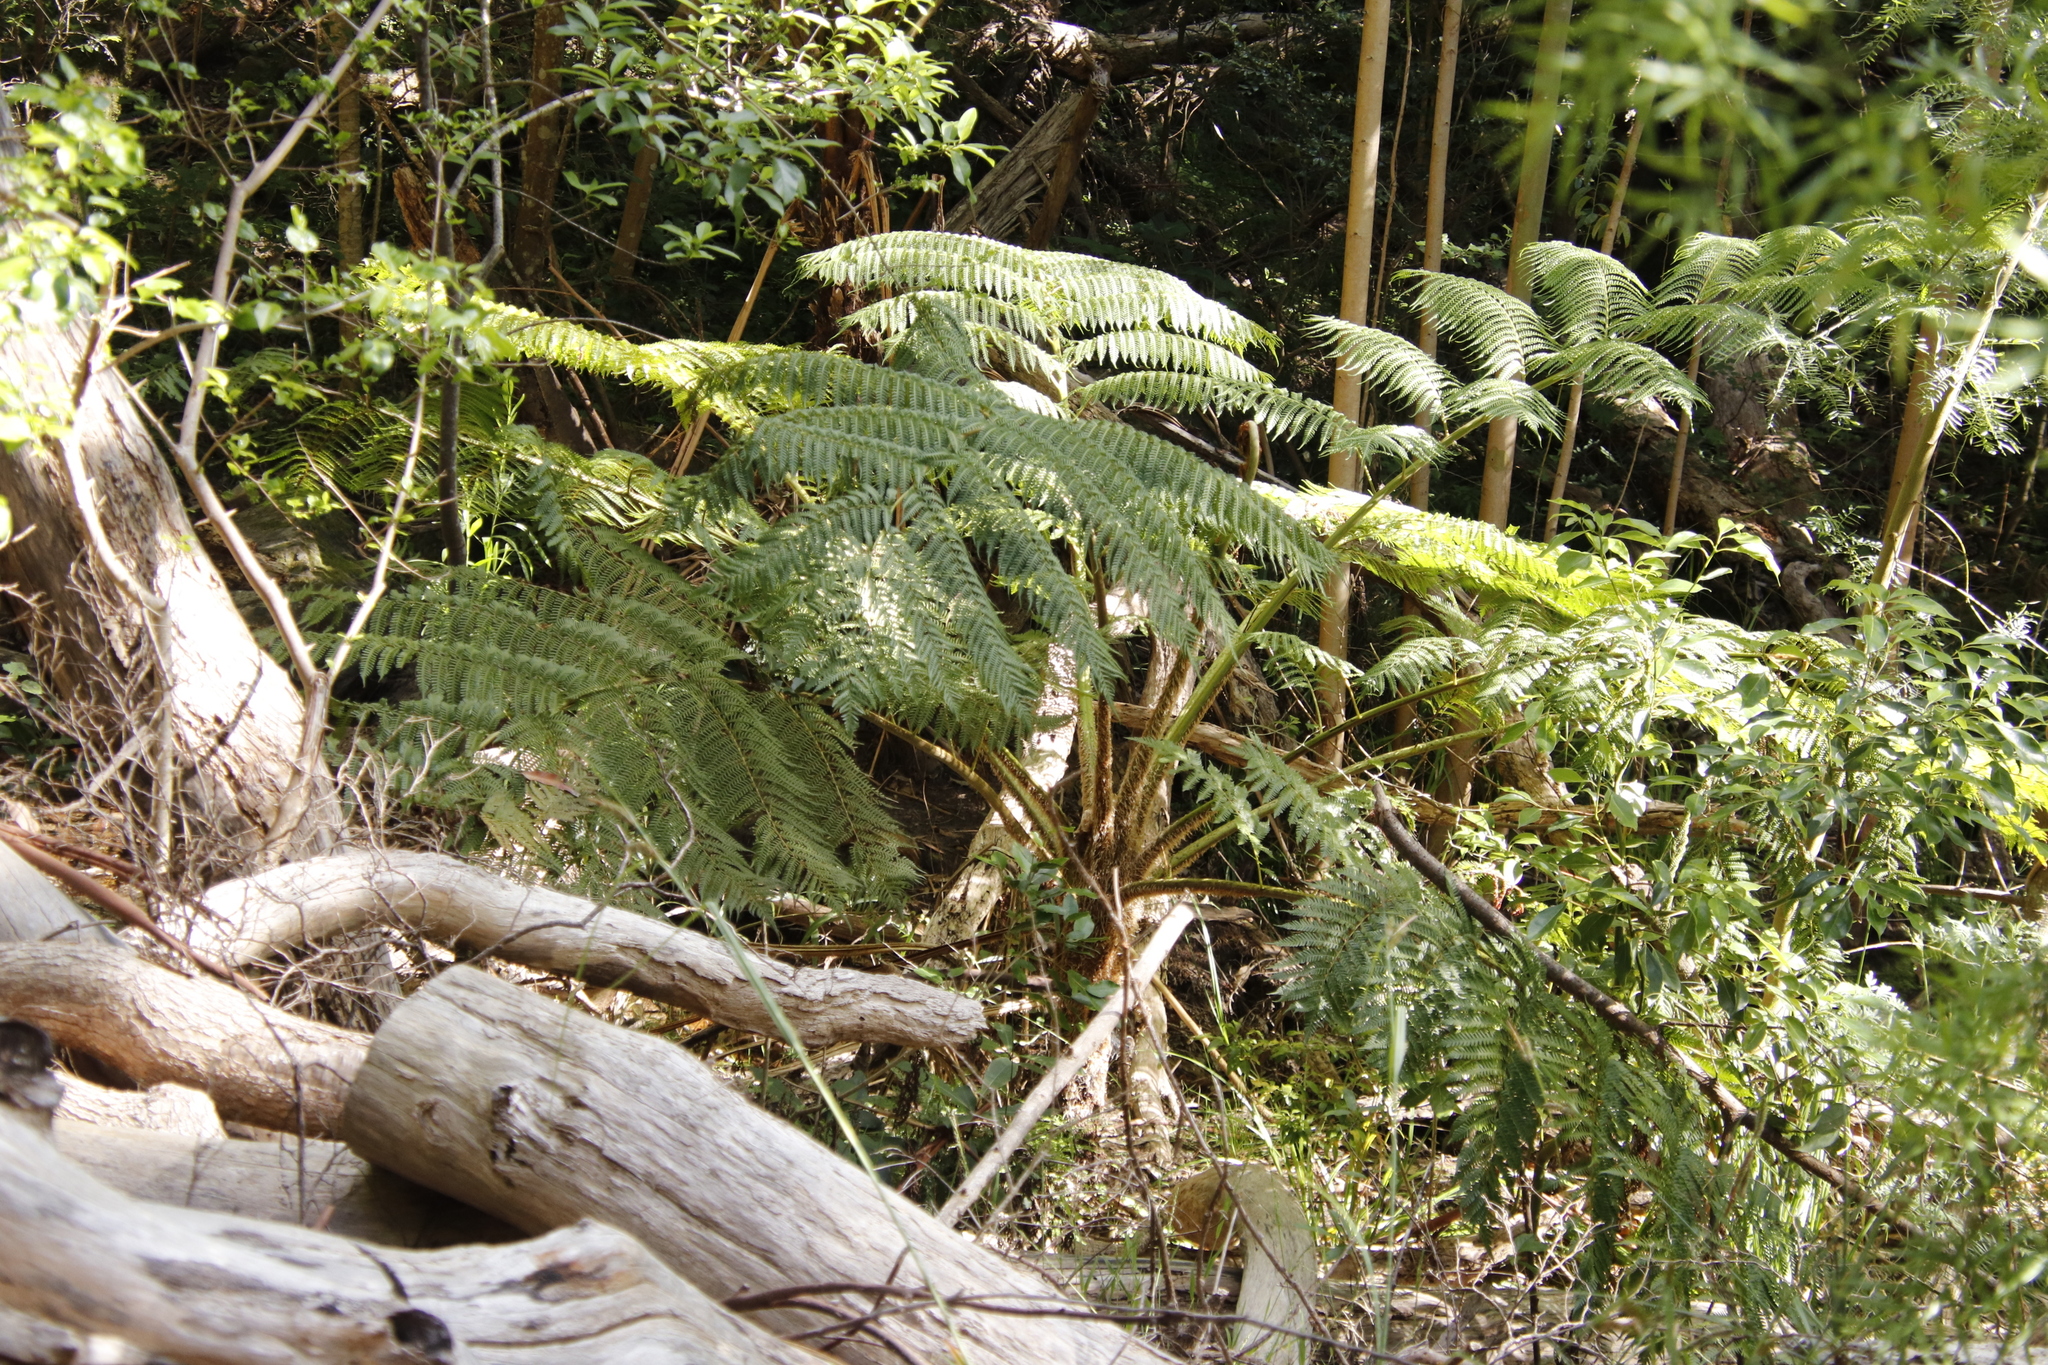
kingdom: Plantae
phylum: Tracheophyta
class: Polypodiopsida
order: Cyatheales
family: Cyatheaceae
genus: Sphaeropteris
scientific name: Sphaeropteris cooperi
